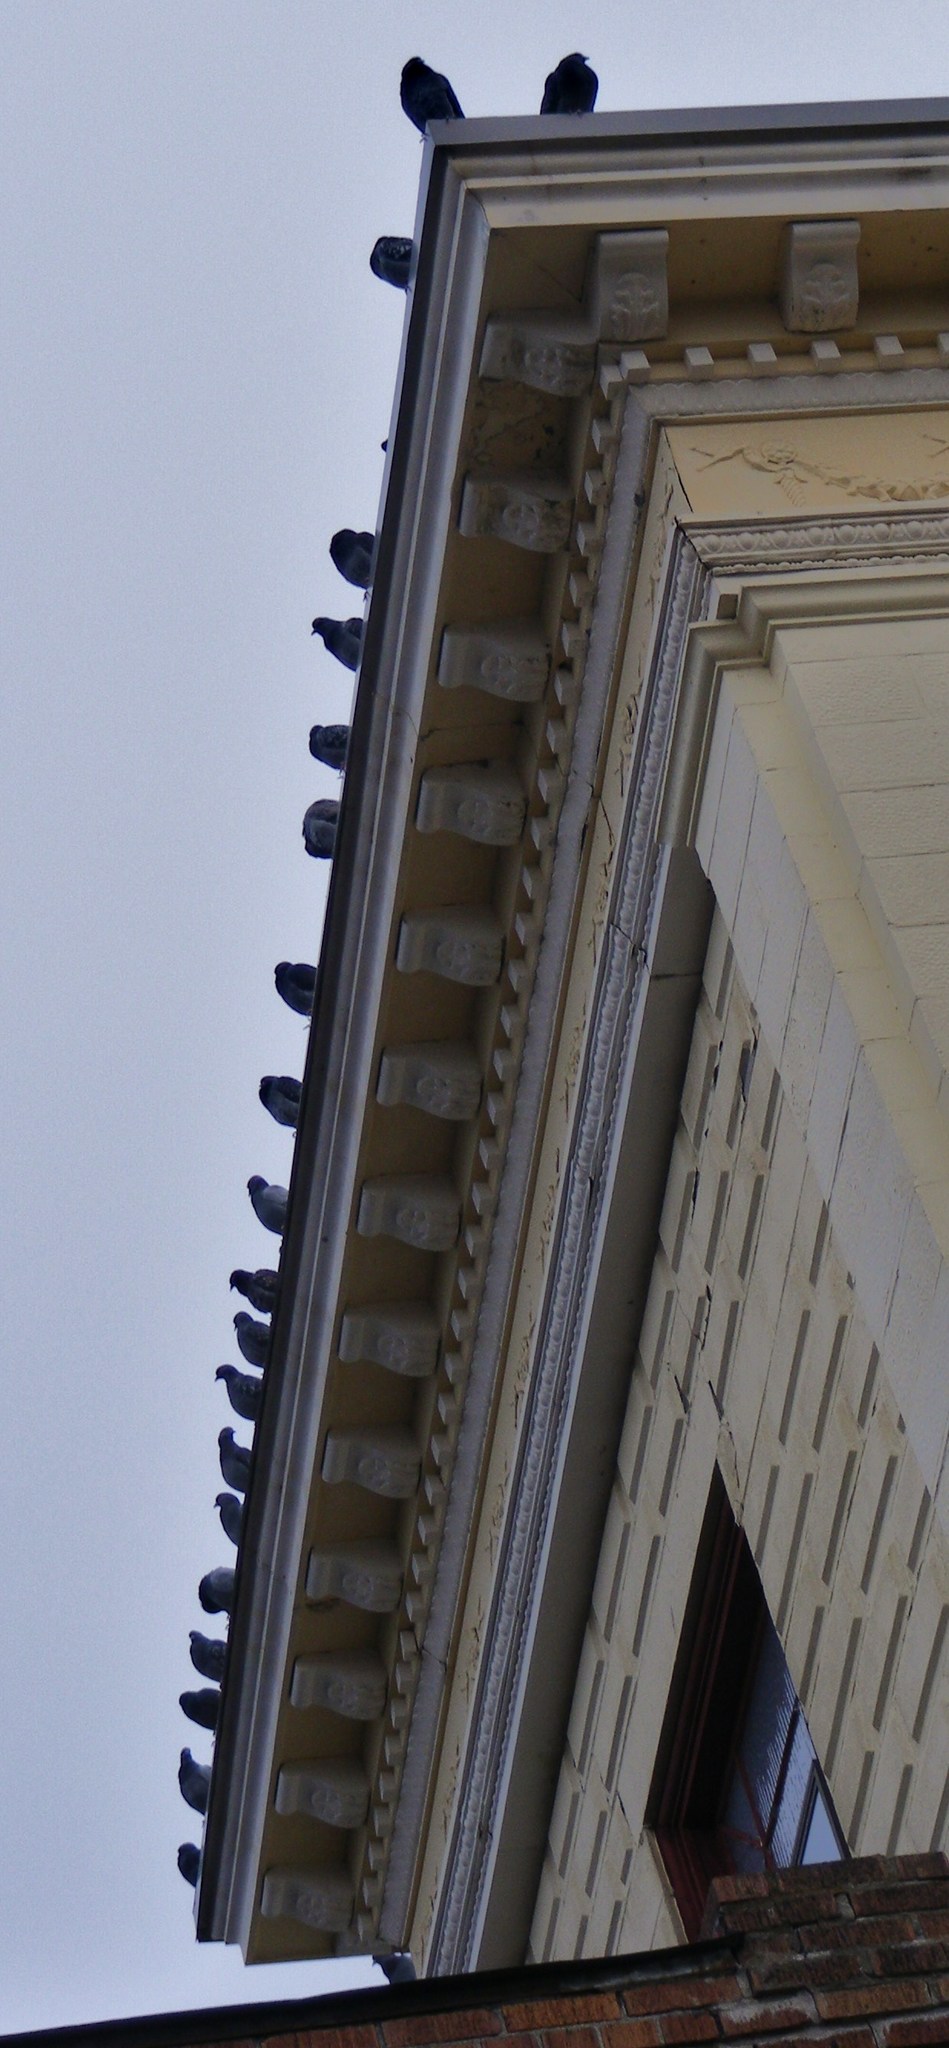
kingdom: Animalia
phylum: Chordata
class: Aves
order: Columbiformes
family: Columbidae
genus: Columba
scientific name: Columba livia
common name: Rock pigeon
